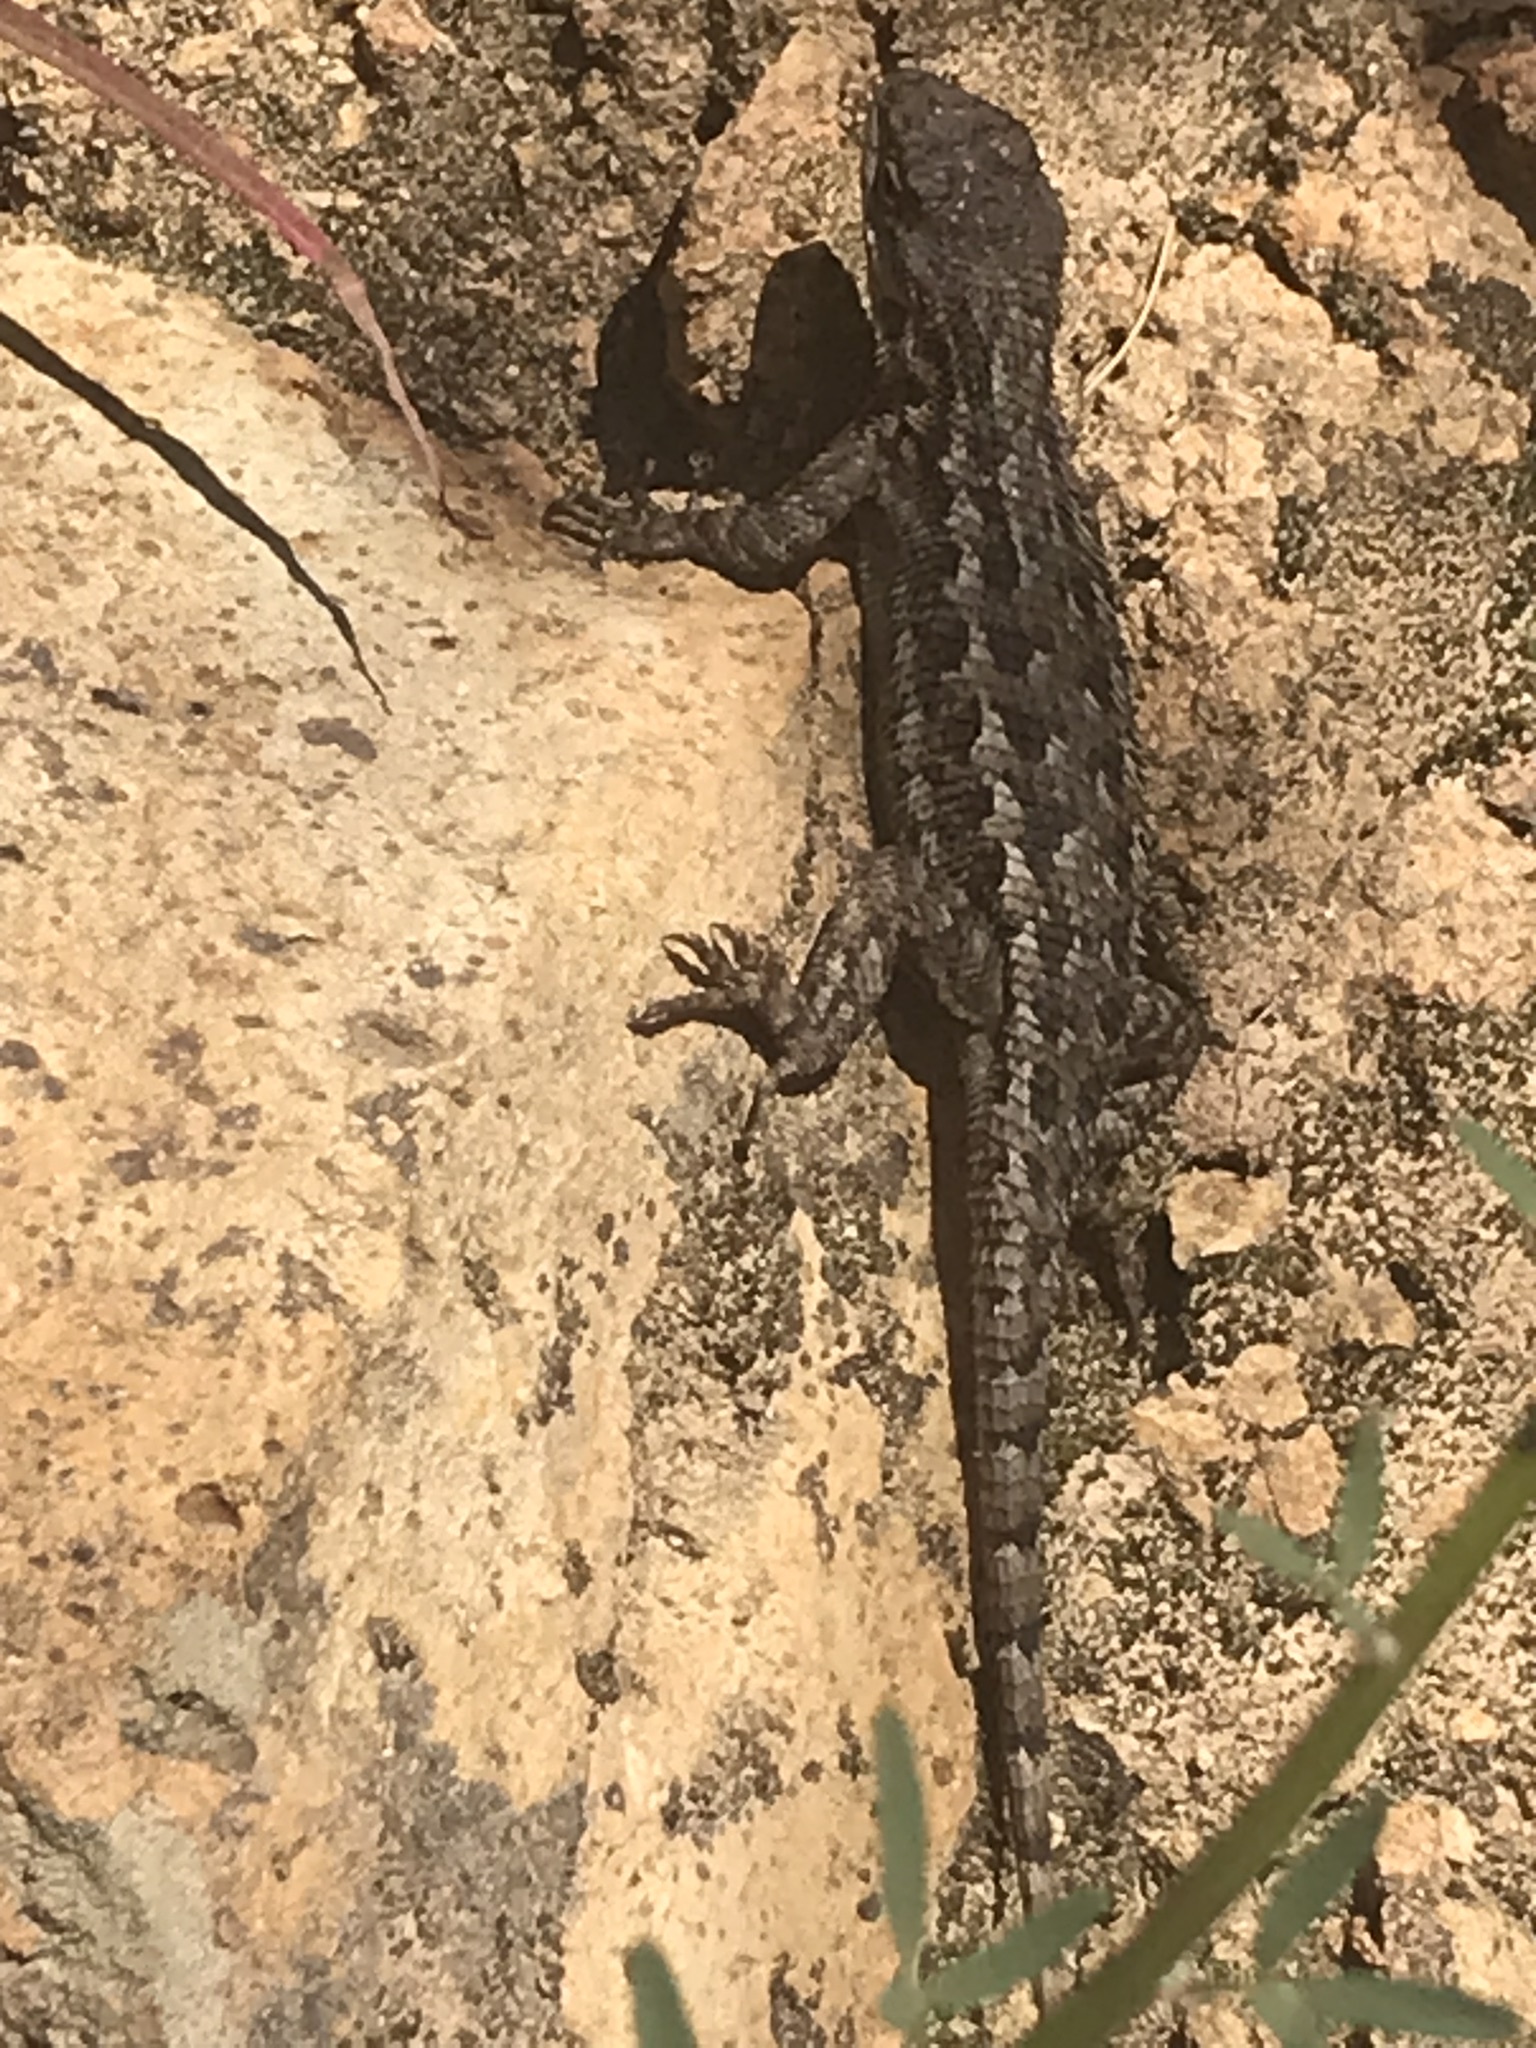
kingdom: Animalia
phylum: Chordata
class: Squamata
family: Phrynosomatidae
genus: Sceloporus
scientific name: Sceloporus occidentalis
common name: Western fence lizard
